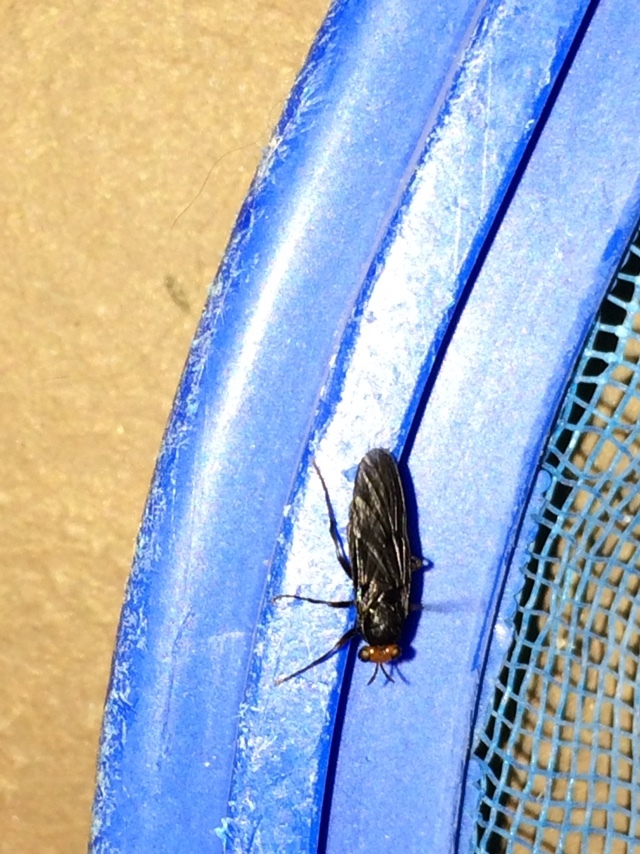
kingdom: Animalia
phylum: Arthropoda
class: Insecta
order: Diptera
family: Stratiomyidae
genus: Inopus
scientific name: Inopus rubriceps
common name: Soldier fly
